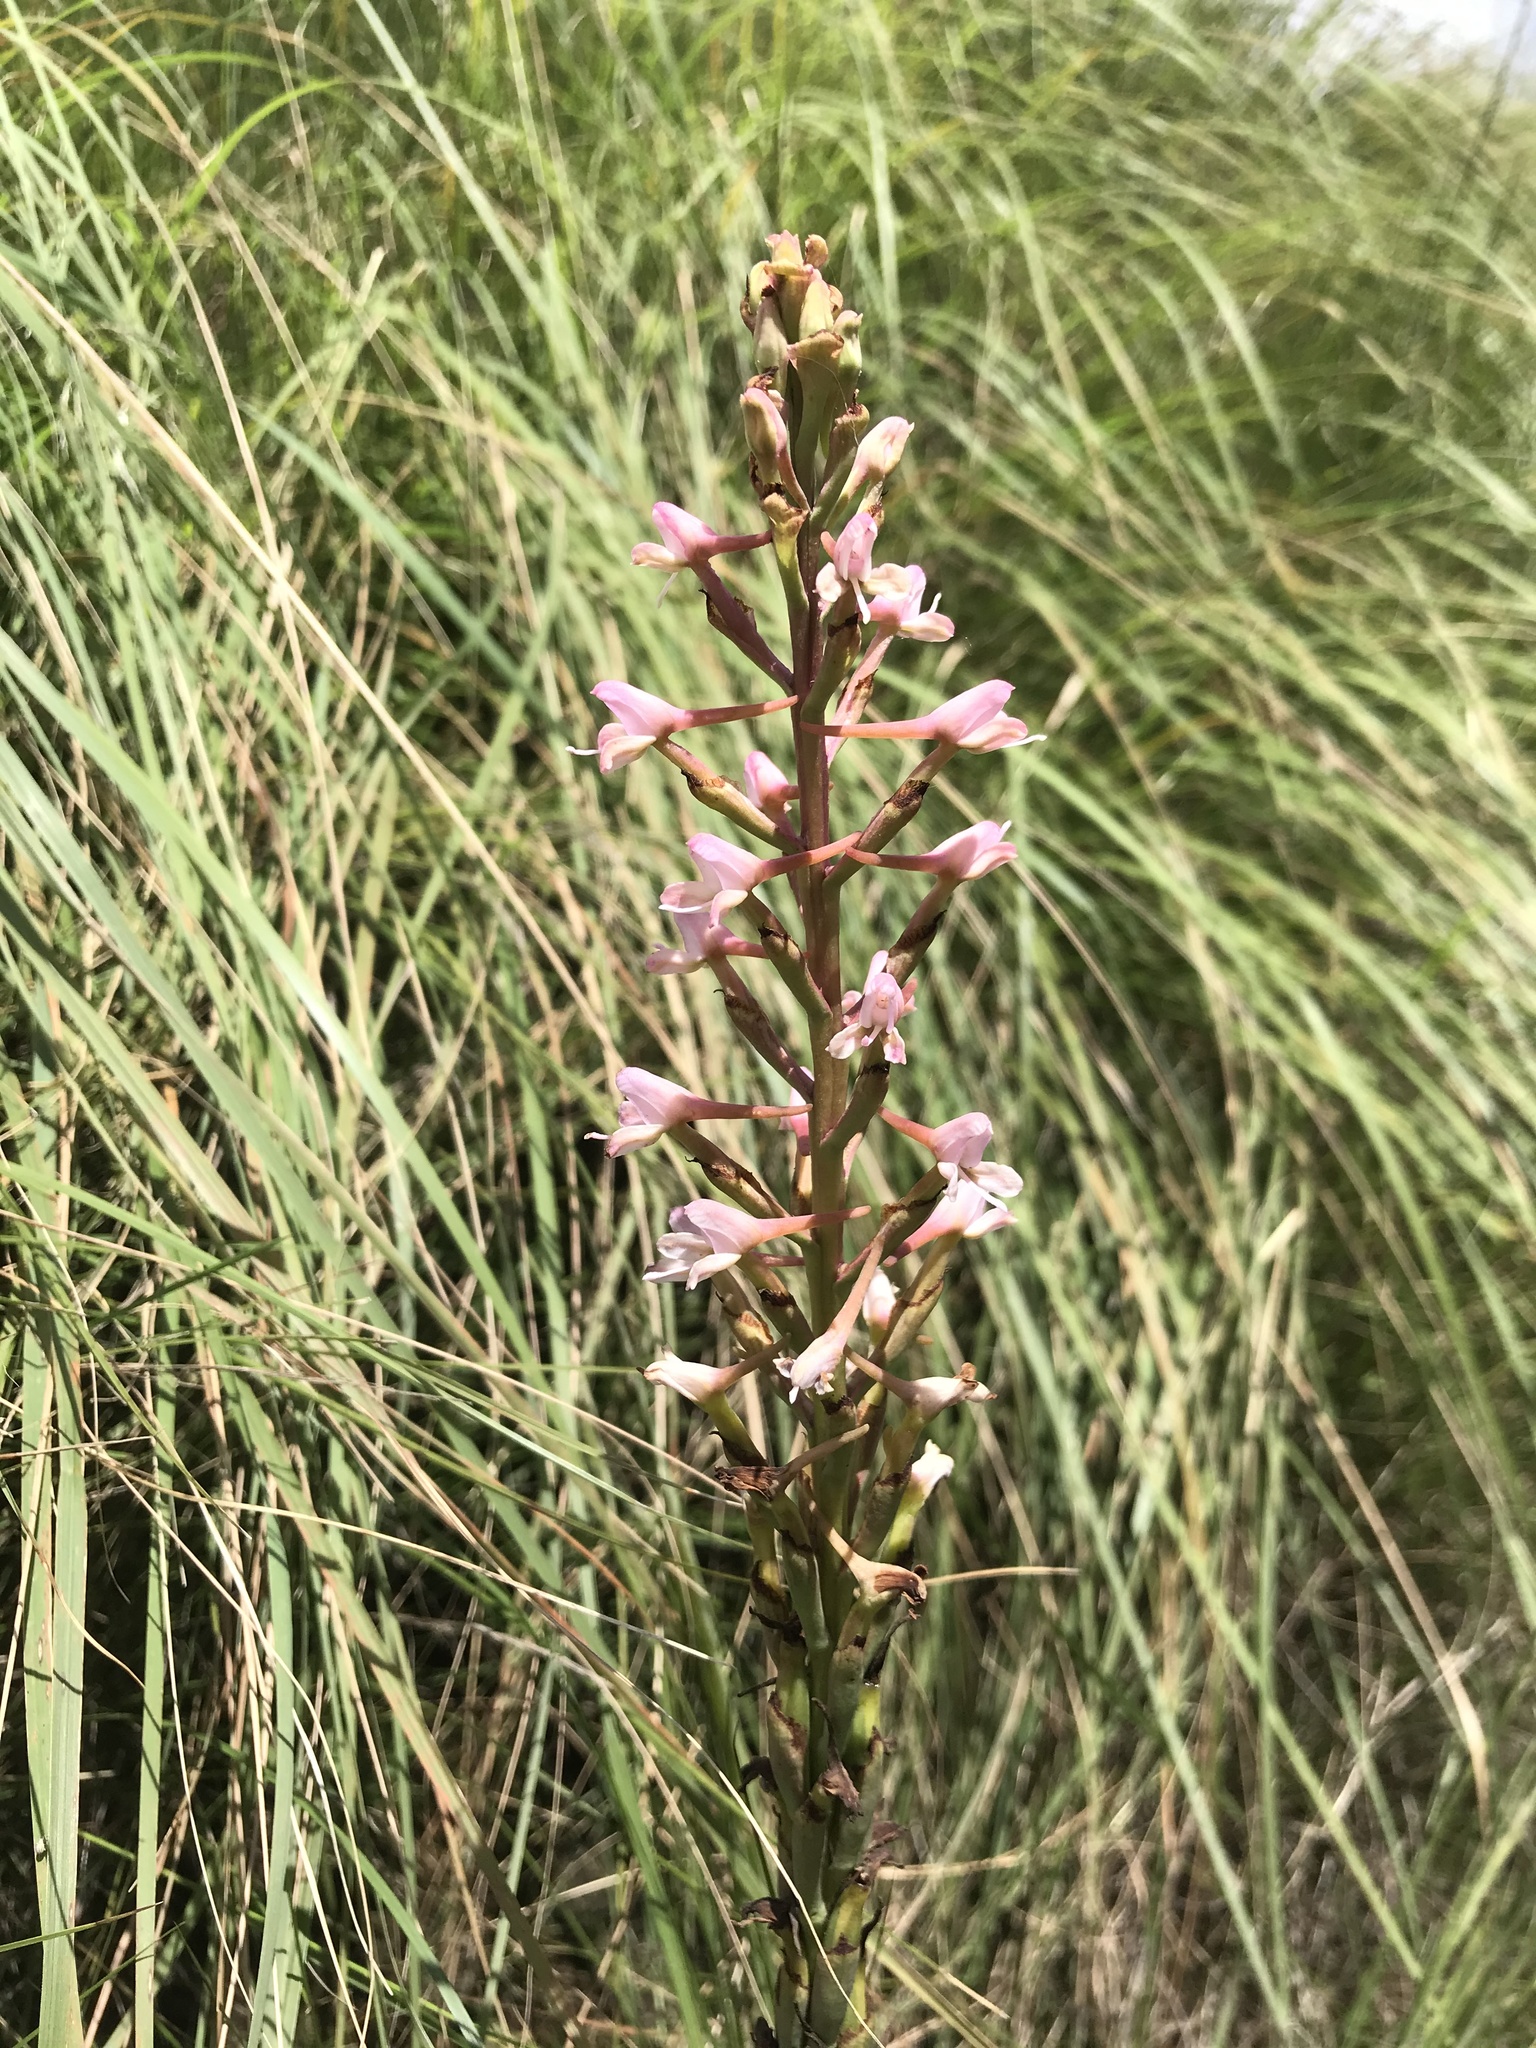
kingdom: Plantae
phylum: Tracheophyta
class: Liliopsida
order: Asparagales
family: Orchidaceae
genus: Disa
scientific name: Disa patula
